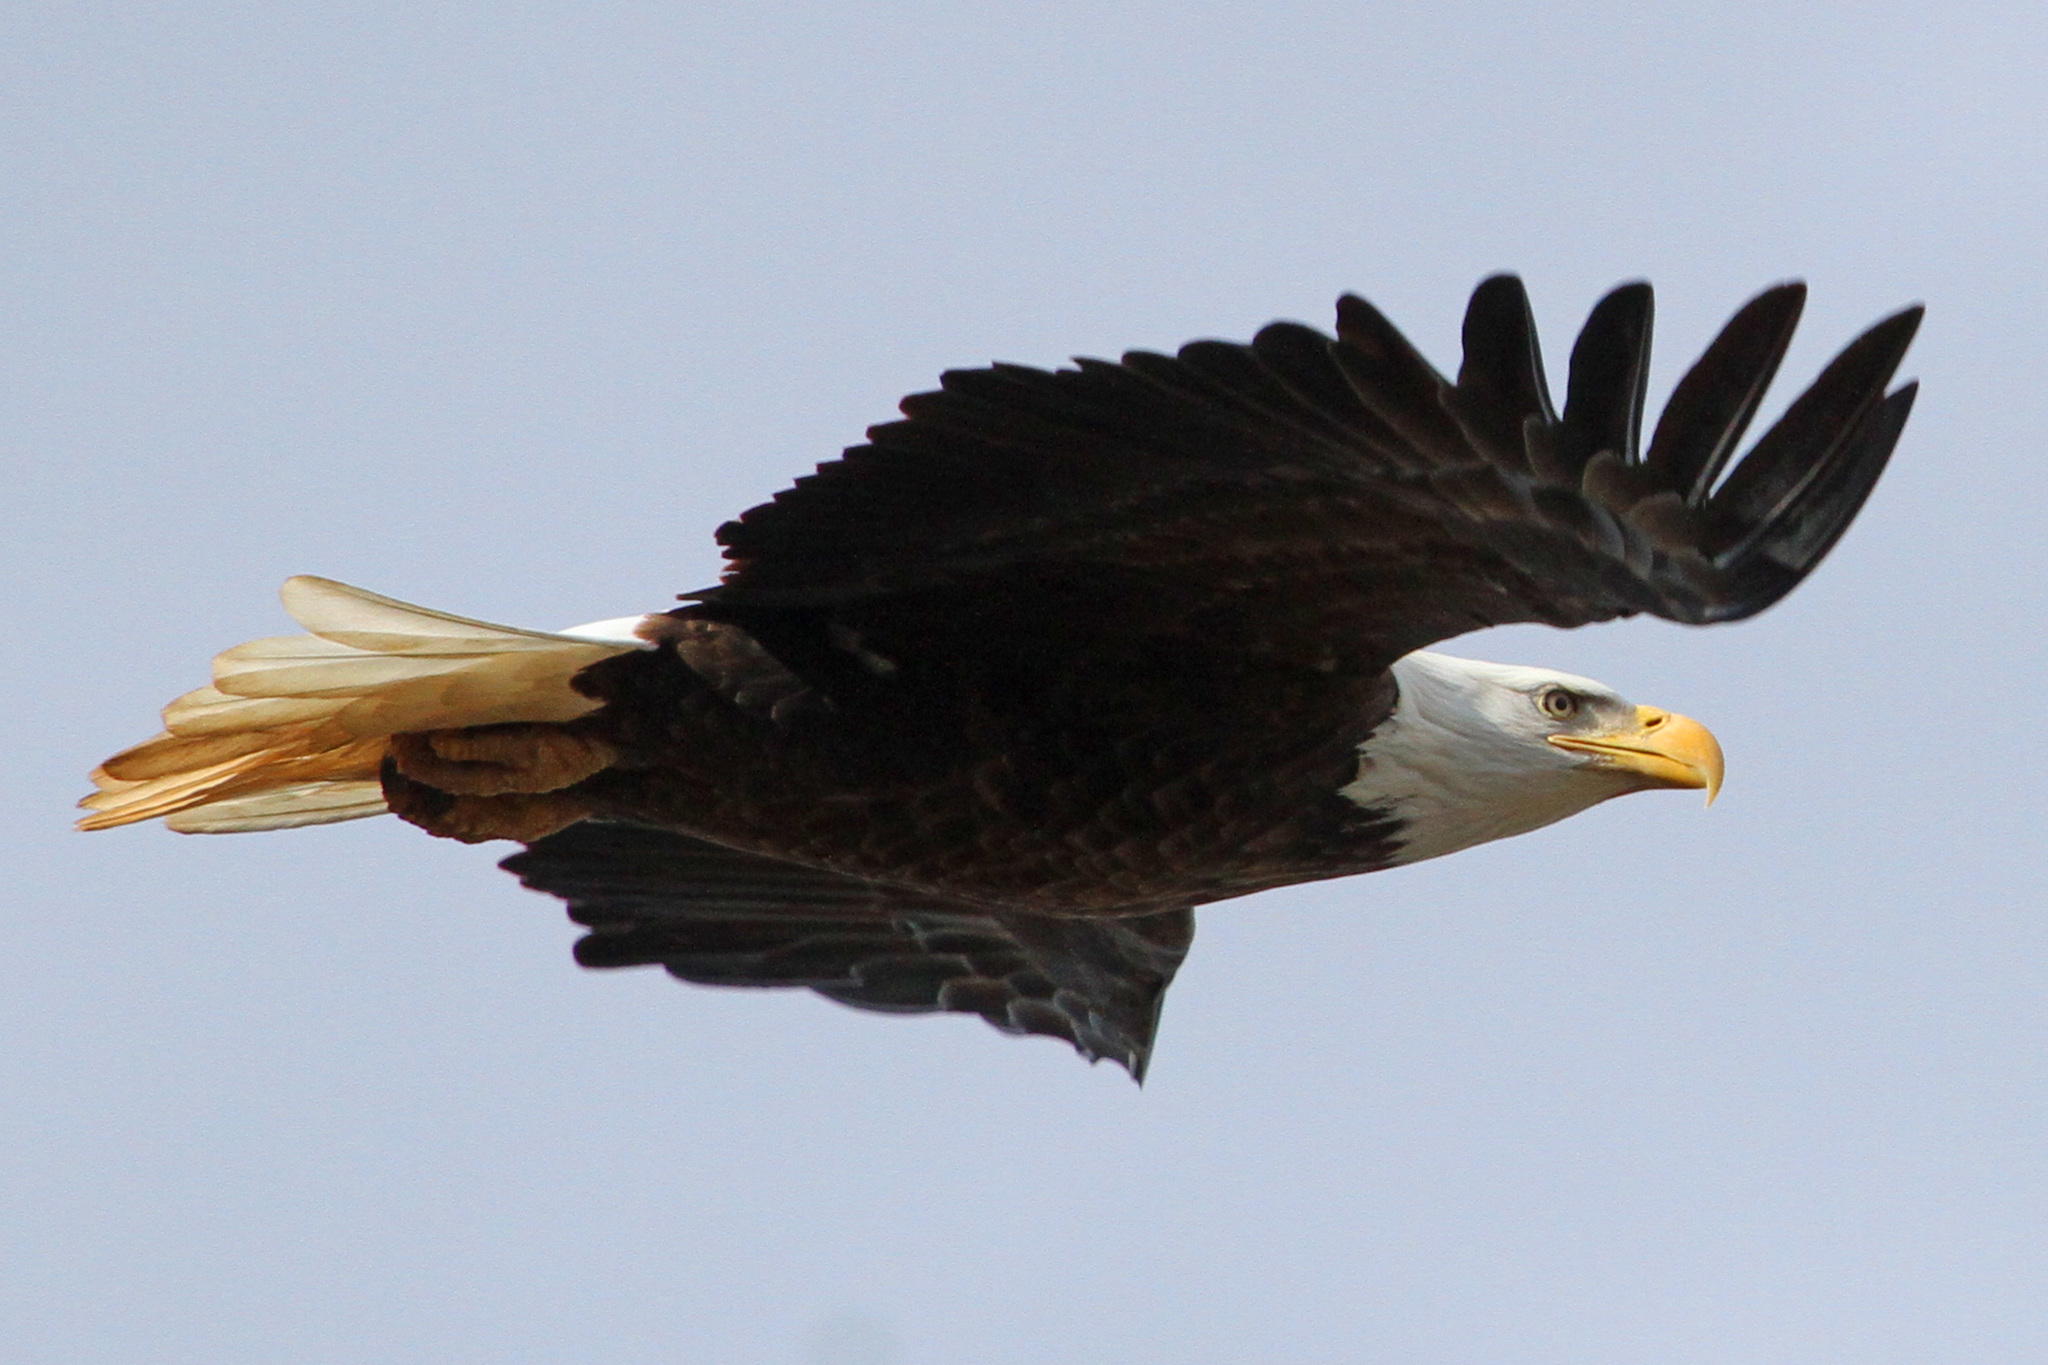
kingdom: Animalia
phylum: Chordata
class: Aves
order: Accipitriformes
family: Accipitridae
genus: Haliaeetus
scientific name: Haliaeetus leucocephalus
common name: Bald eagle
